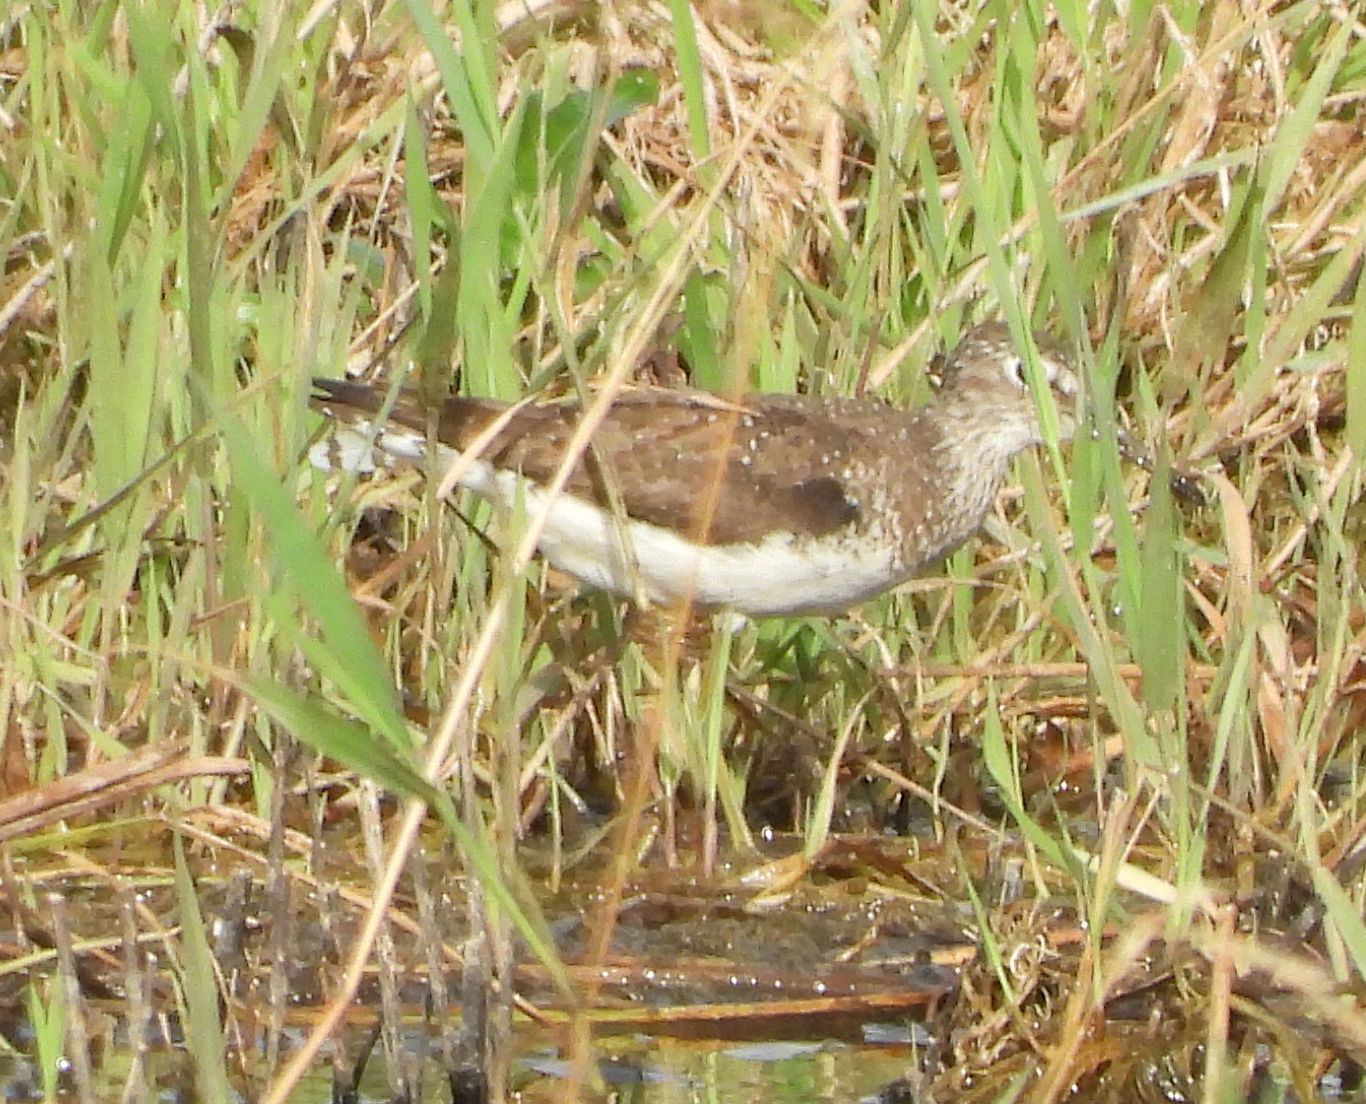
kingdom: Animalia
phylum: Chordata
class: Aves
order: Charadriiformes
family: Scolopacidae
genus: Tringa
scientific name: Tringa solitaria
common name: Solitary sandpiper
